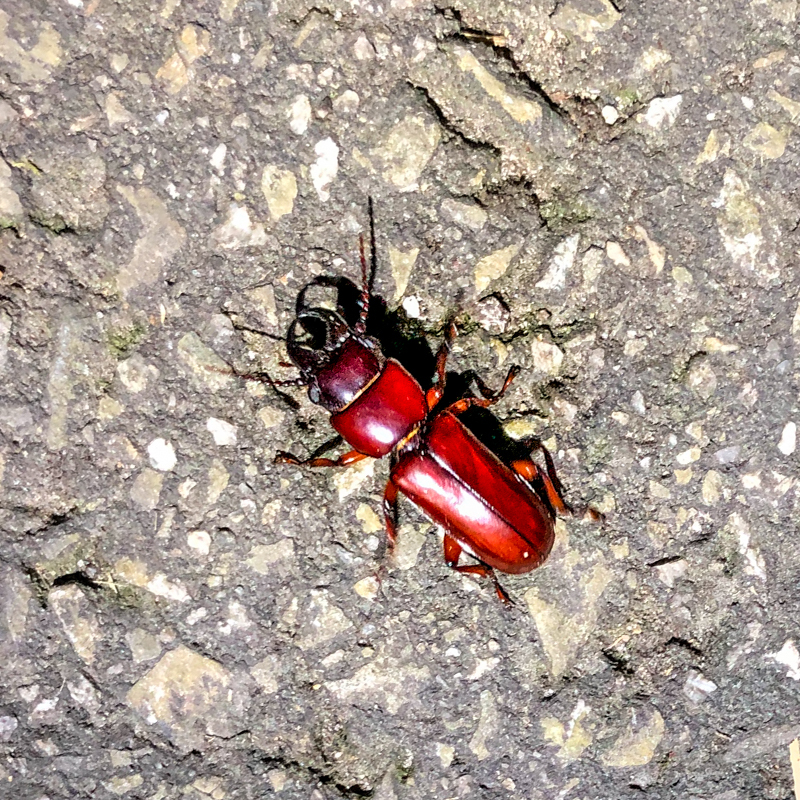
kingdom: Animalia
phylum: Arthropoda
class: Insecta
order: Coleoptera
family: Cerambycidae
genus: Parandra
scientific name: Parandra glabra
